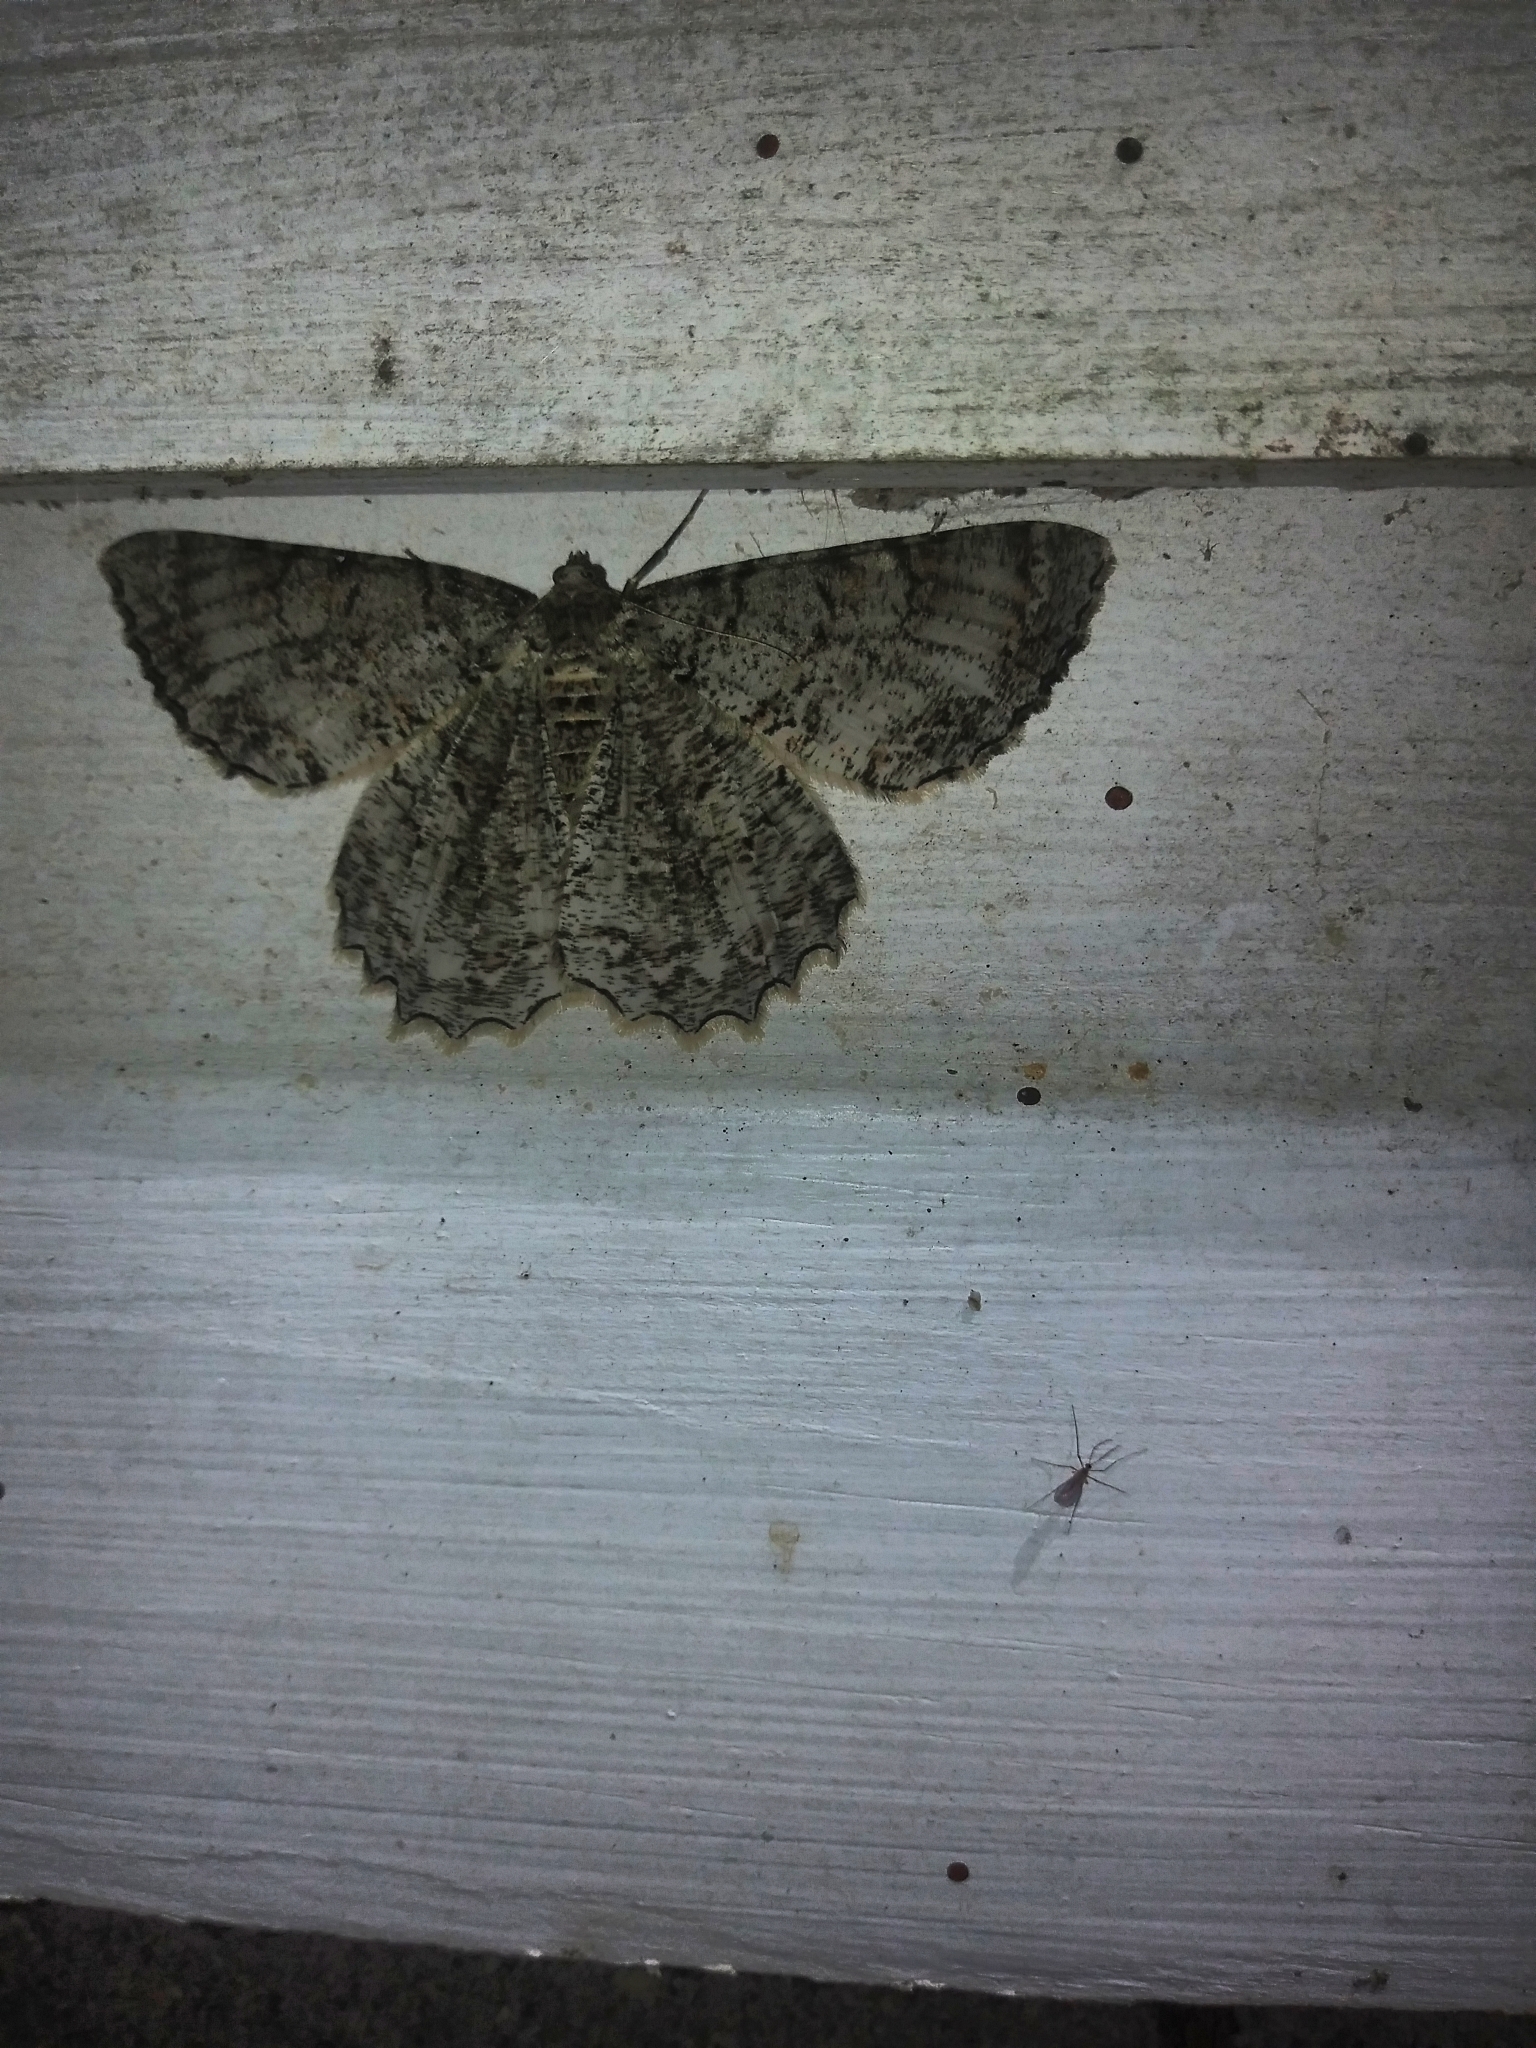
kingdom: Animalia
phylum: Arthropoda
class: Insecta
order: Lepidoptera
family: Geometridae
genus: Epimecis
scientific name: Epimecis hortaria
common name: Tulip-tree beauty
